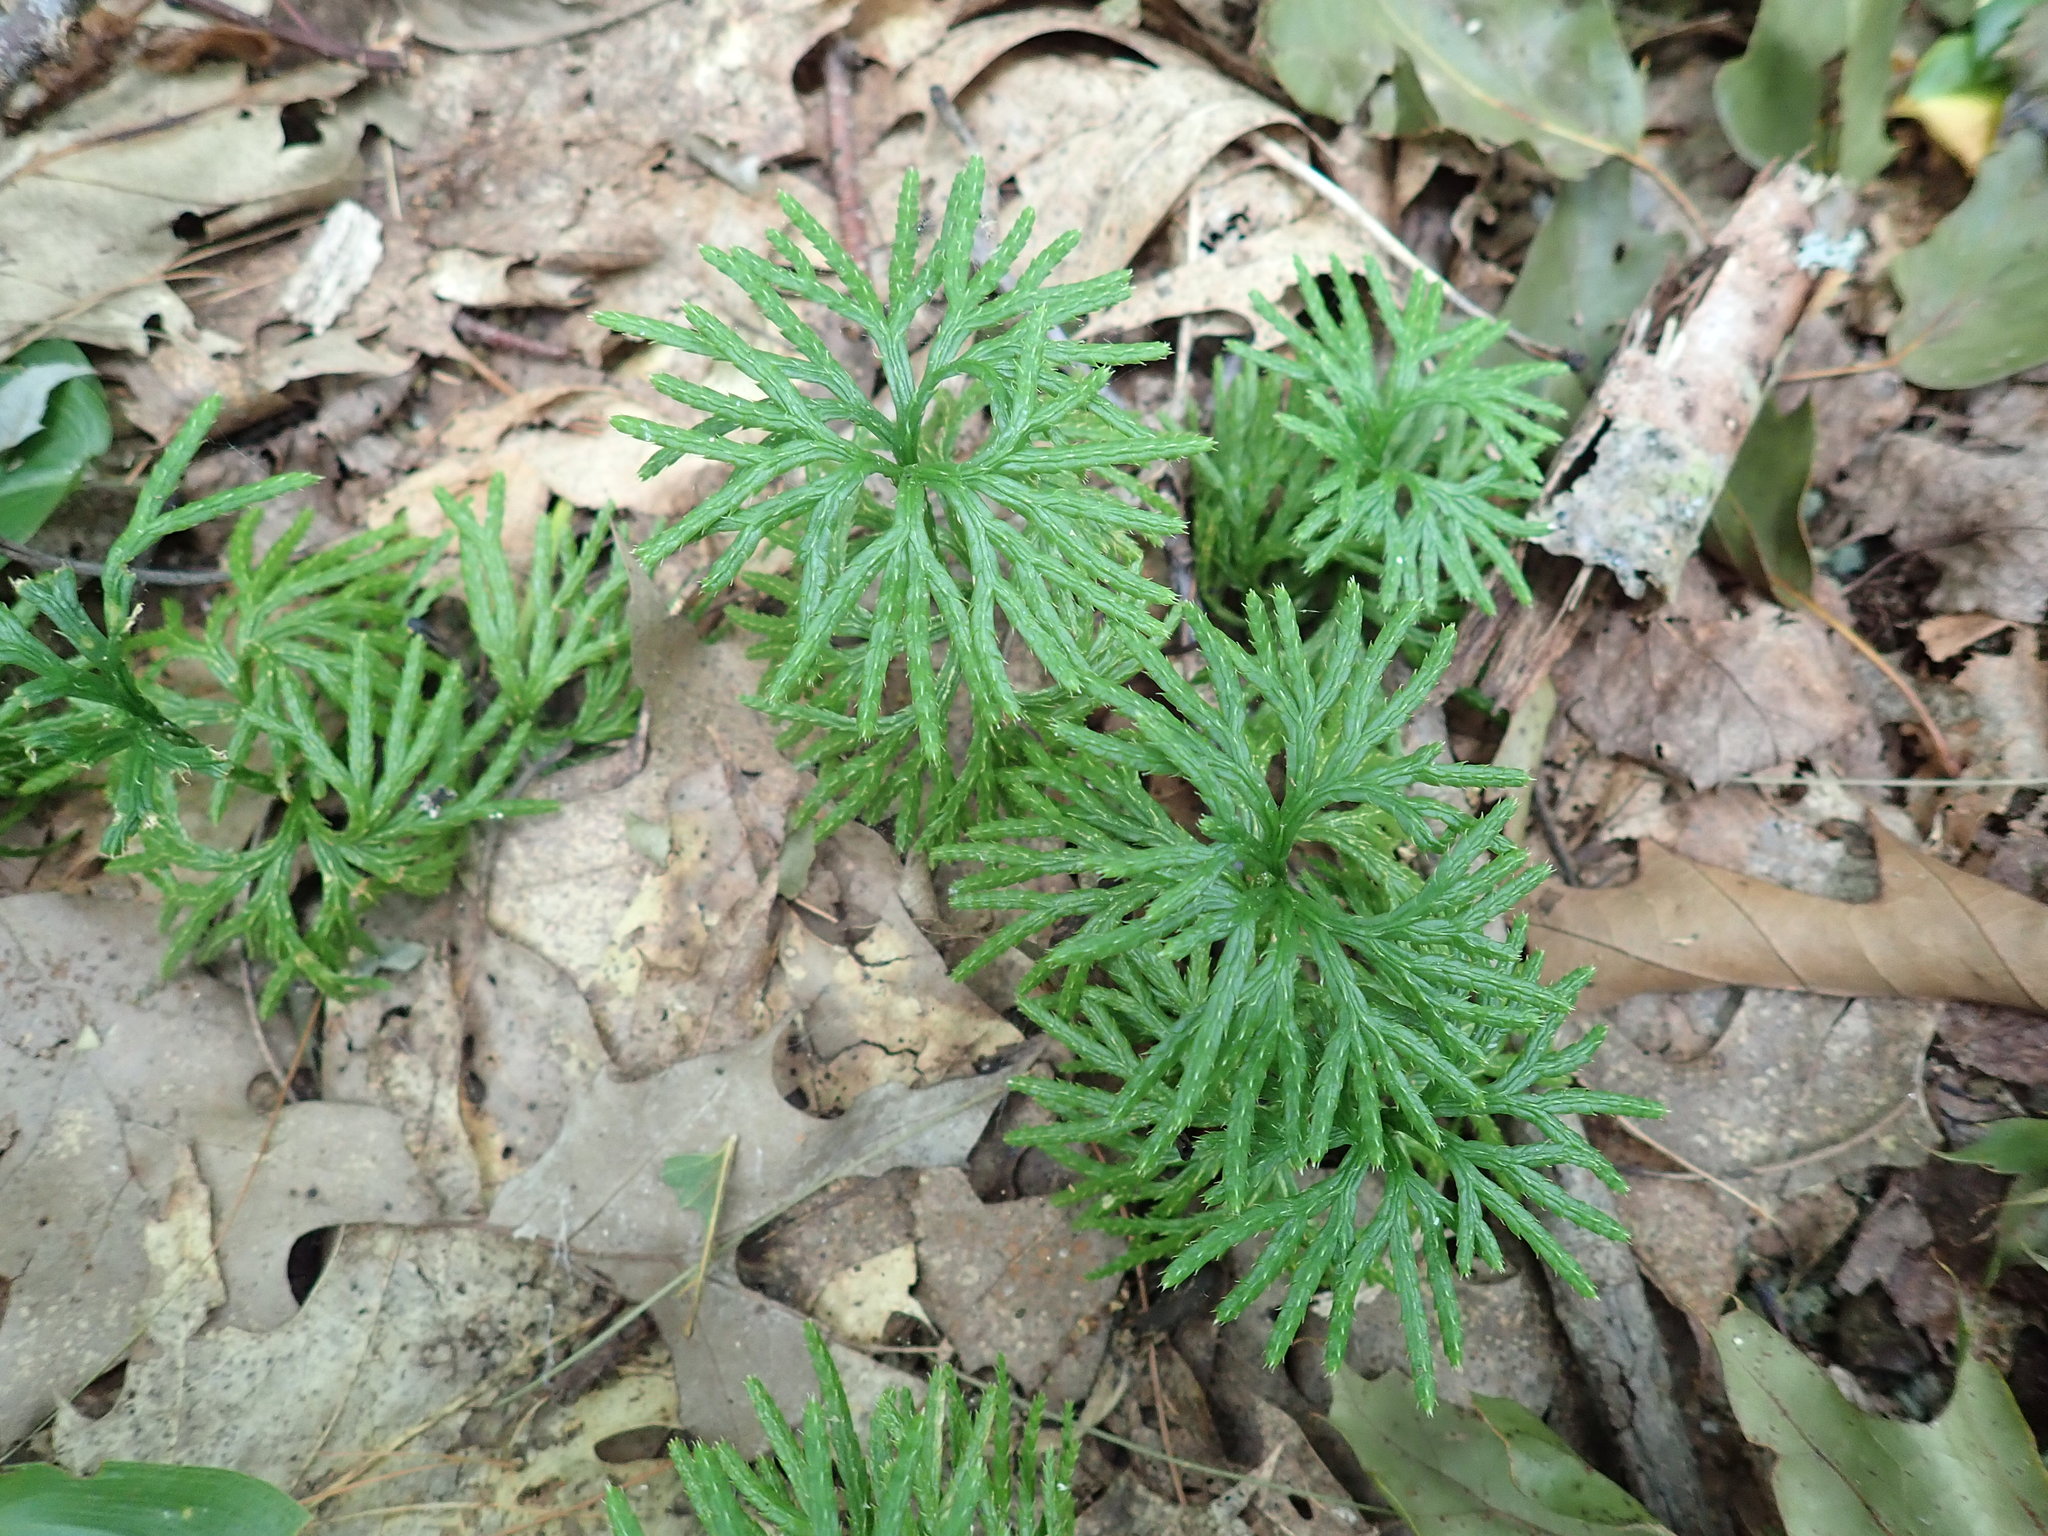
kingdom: Plantae
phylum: Tracheophyta
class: Lycopodiopsida
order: Lycopodiales
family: Lycopodiaceae
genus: Diphasiastrum
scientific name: Diphasiastrum digitatum
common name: Southern running-pine
